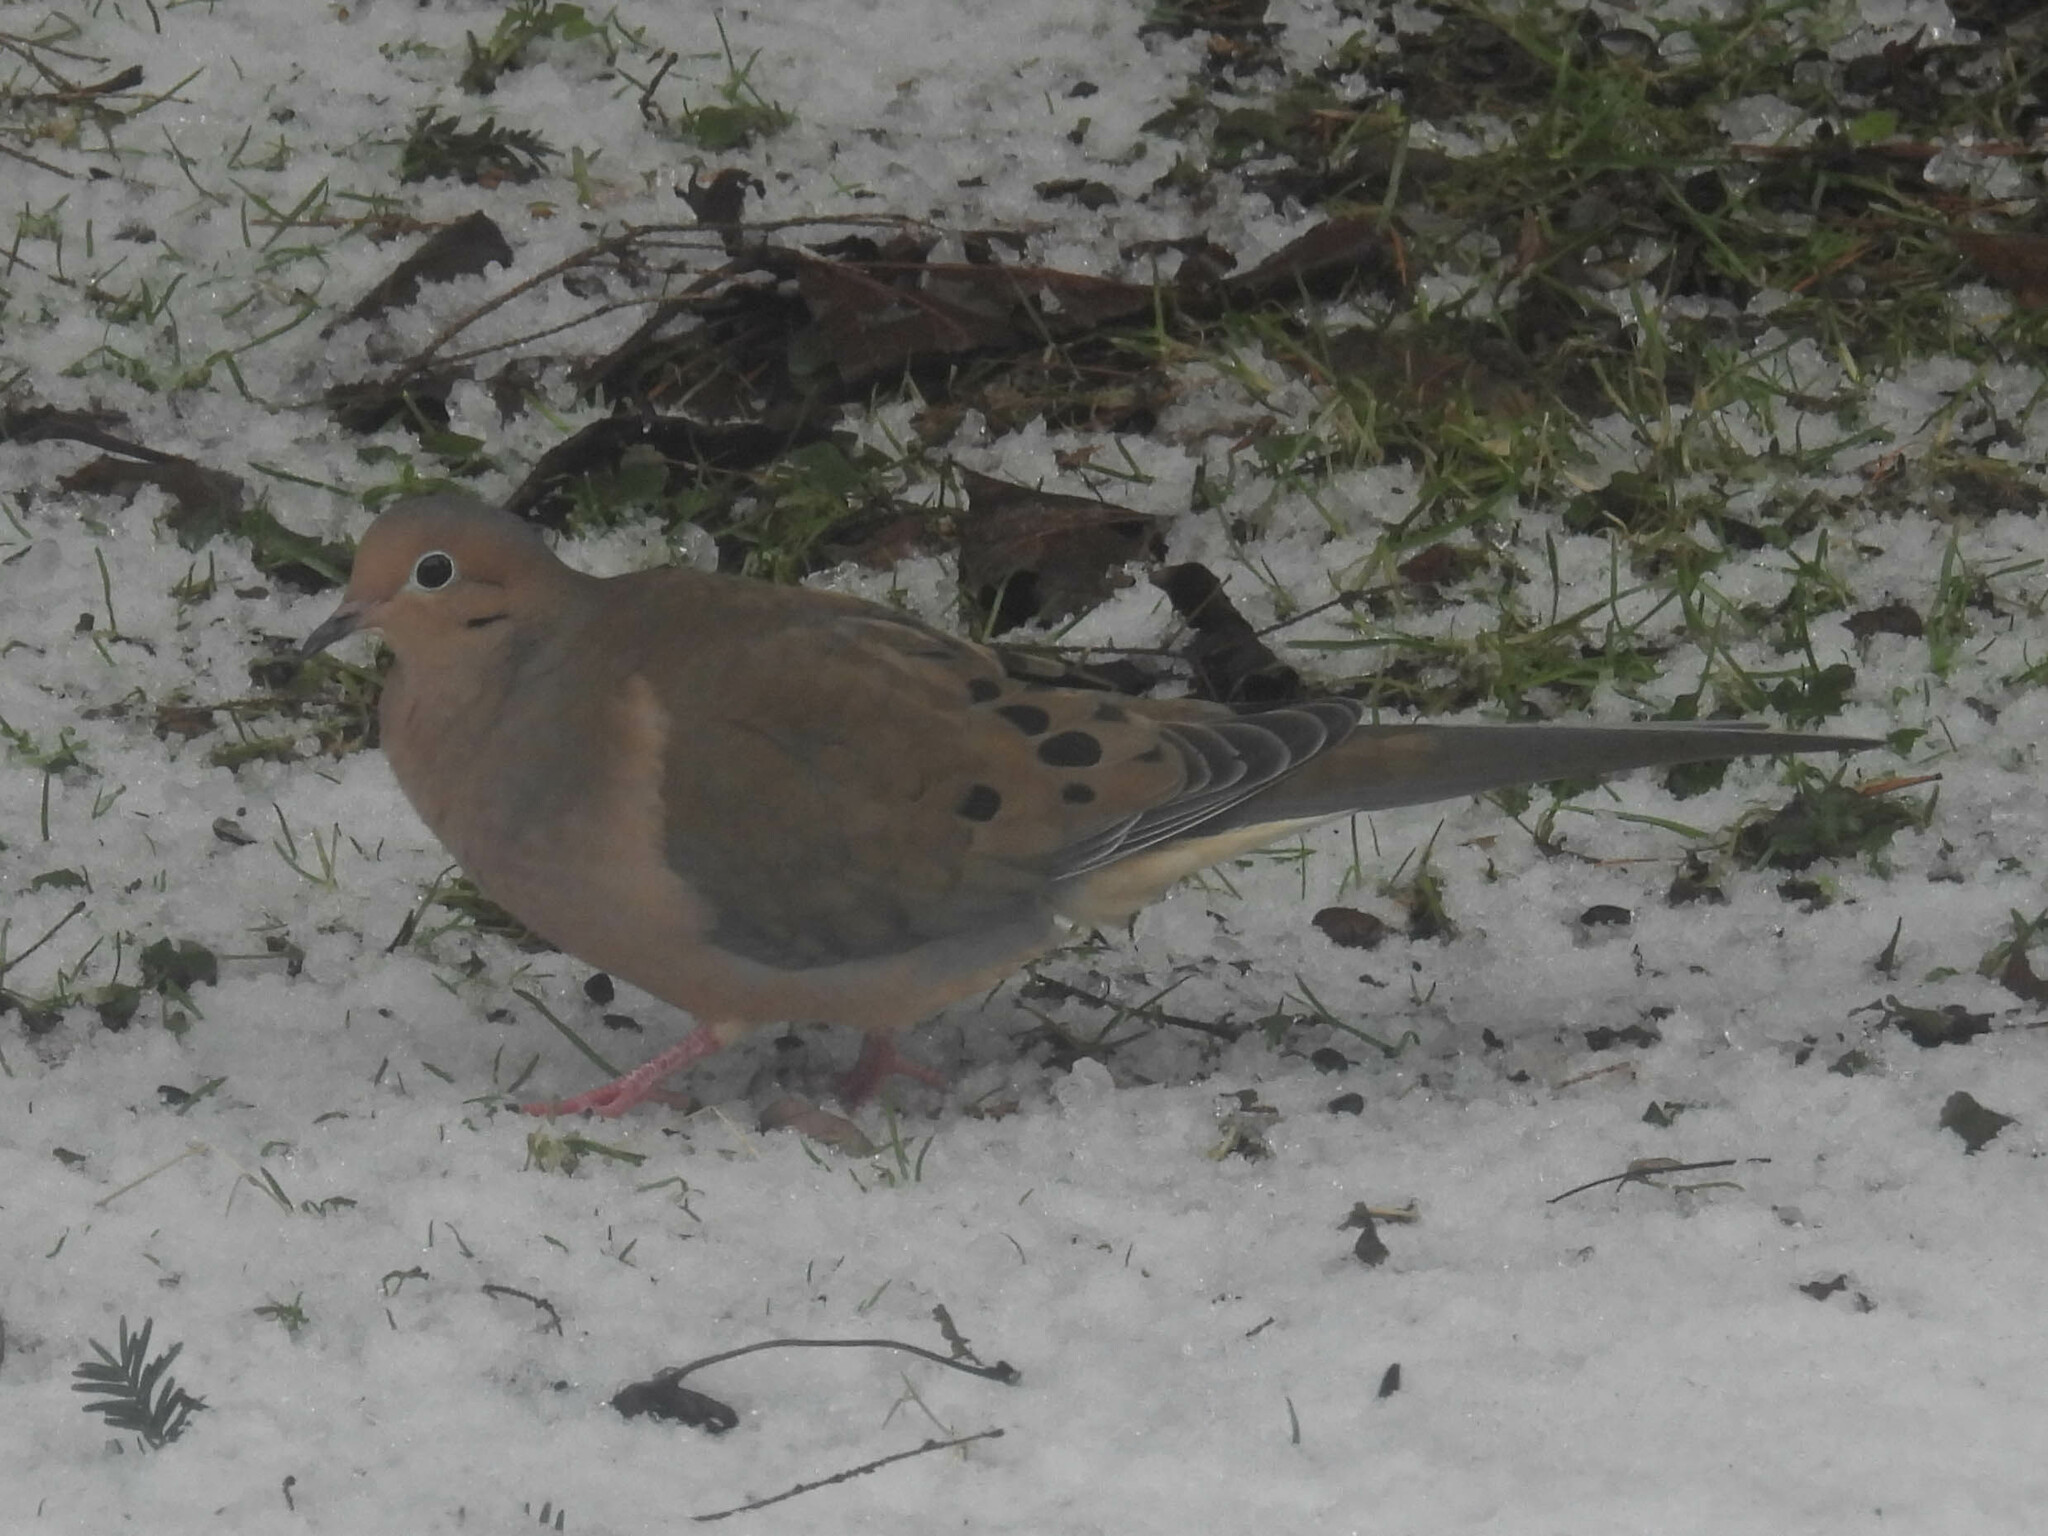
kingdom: Animalia
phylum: Chordata
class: Aves
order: Columbiformes
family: Columbidae
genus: Zenaida
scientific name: Zenaida macroura
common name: Mourning dove
